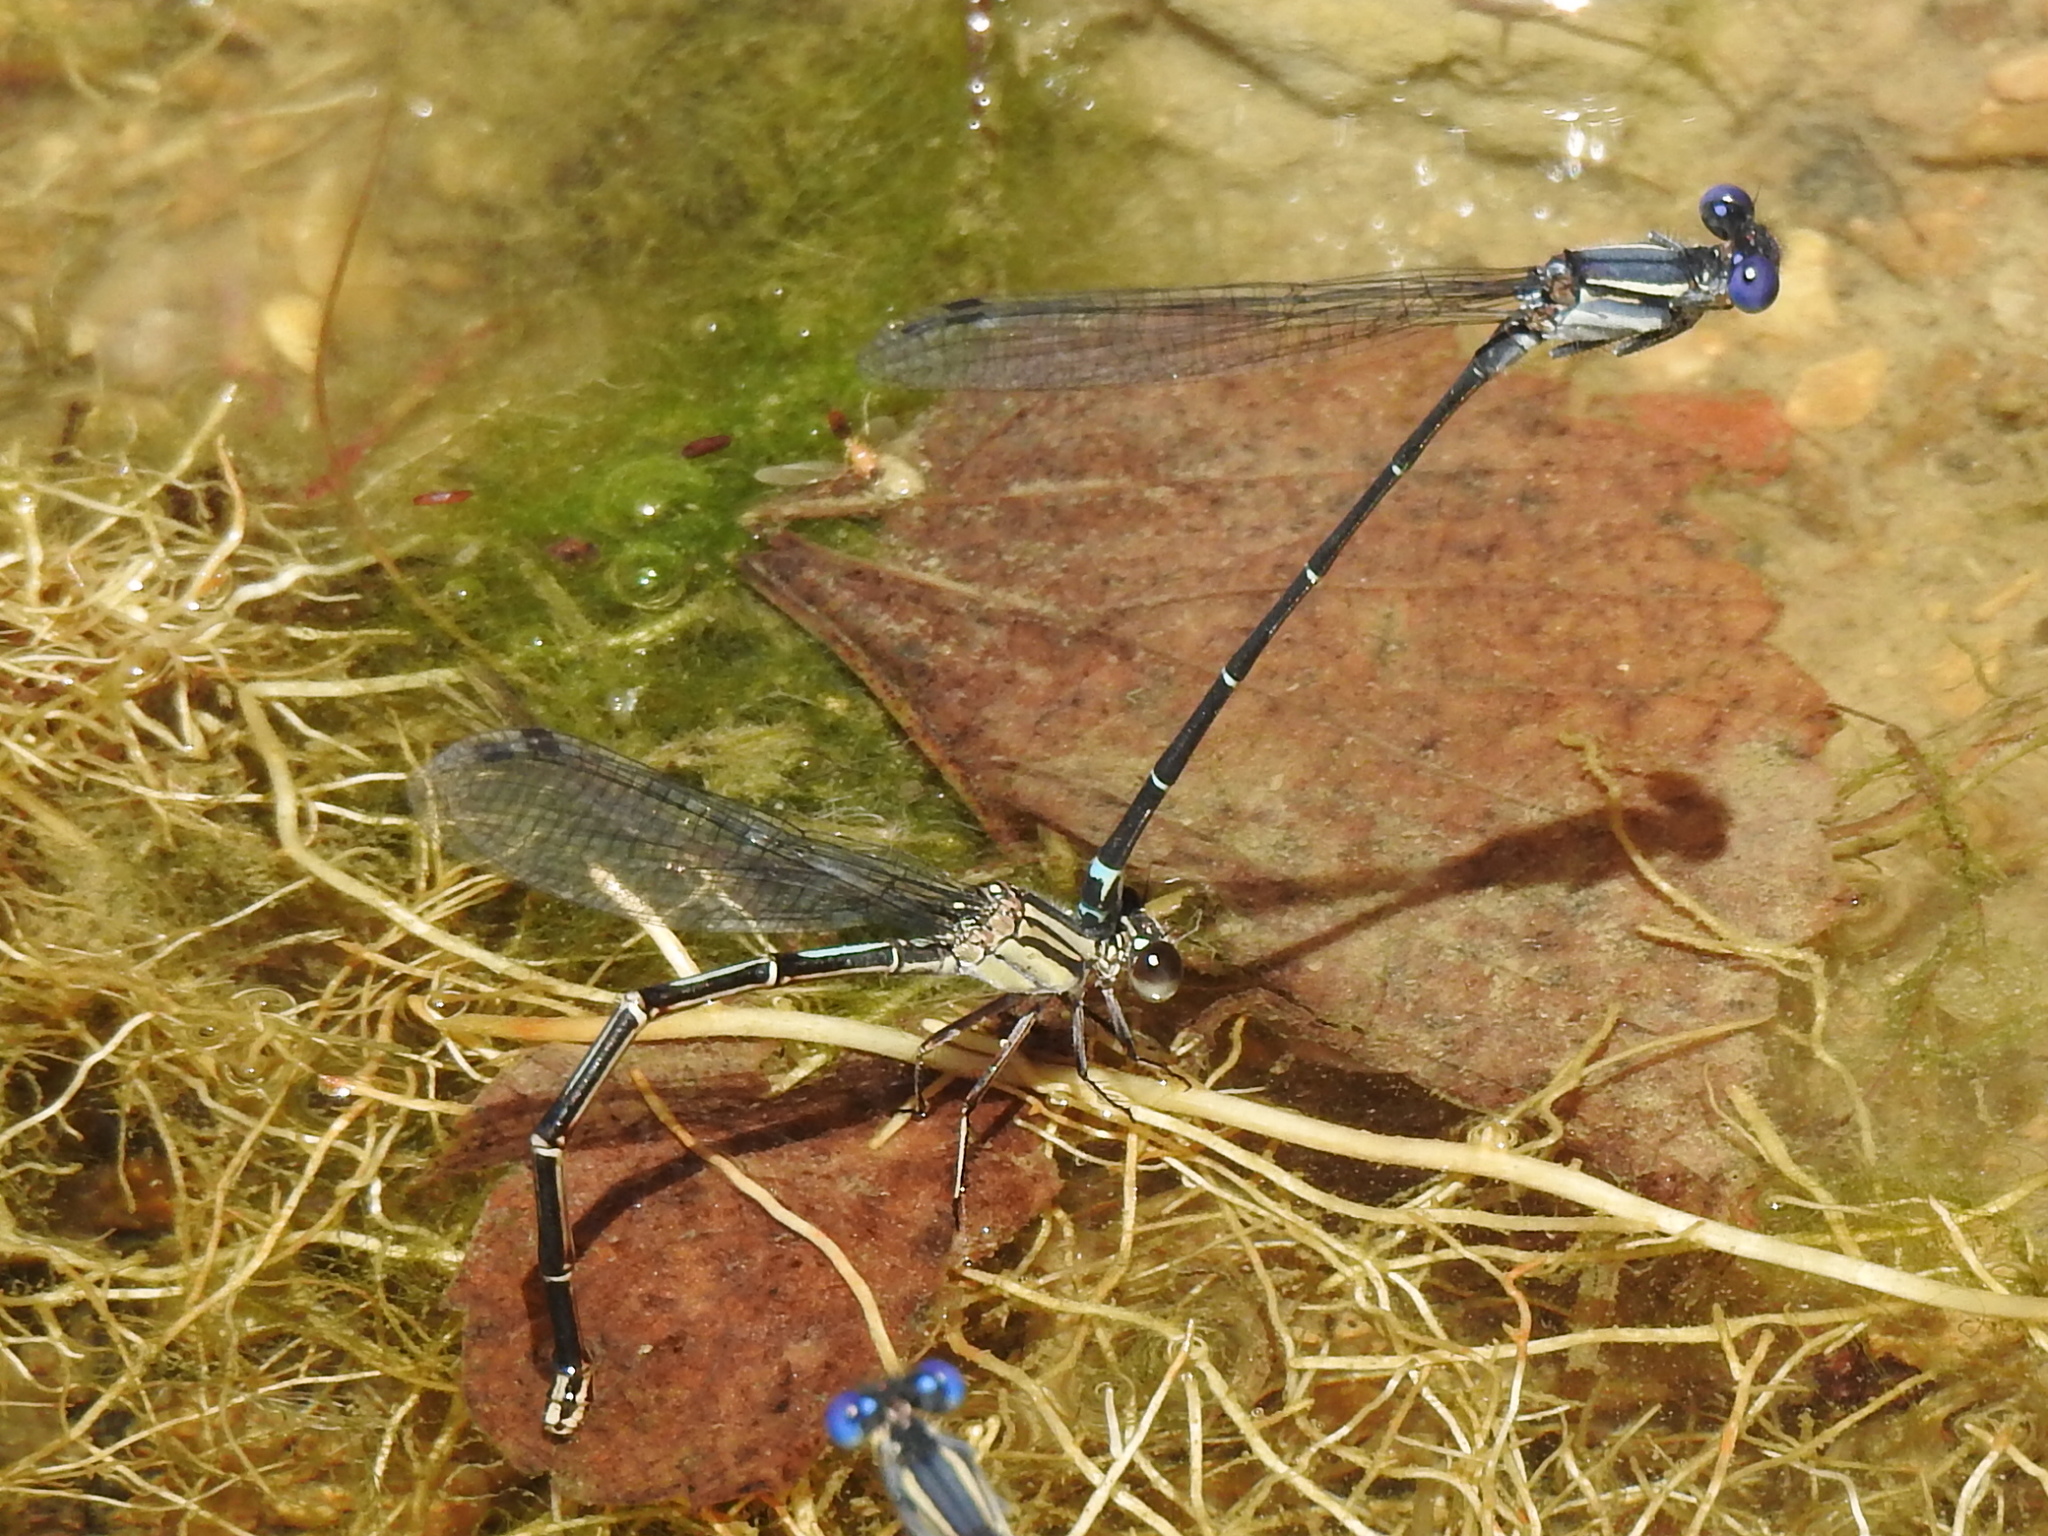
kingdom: Animalia
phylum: Arthropoda
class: Insecta
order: Odonata
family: Coenagrionidae
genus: Argia
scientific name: Argia translata
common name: Dusky dancer
